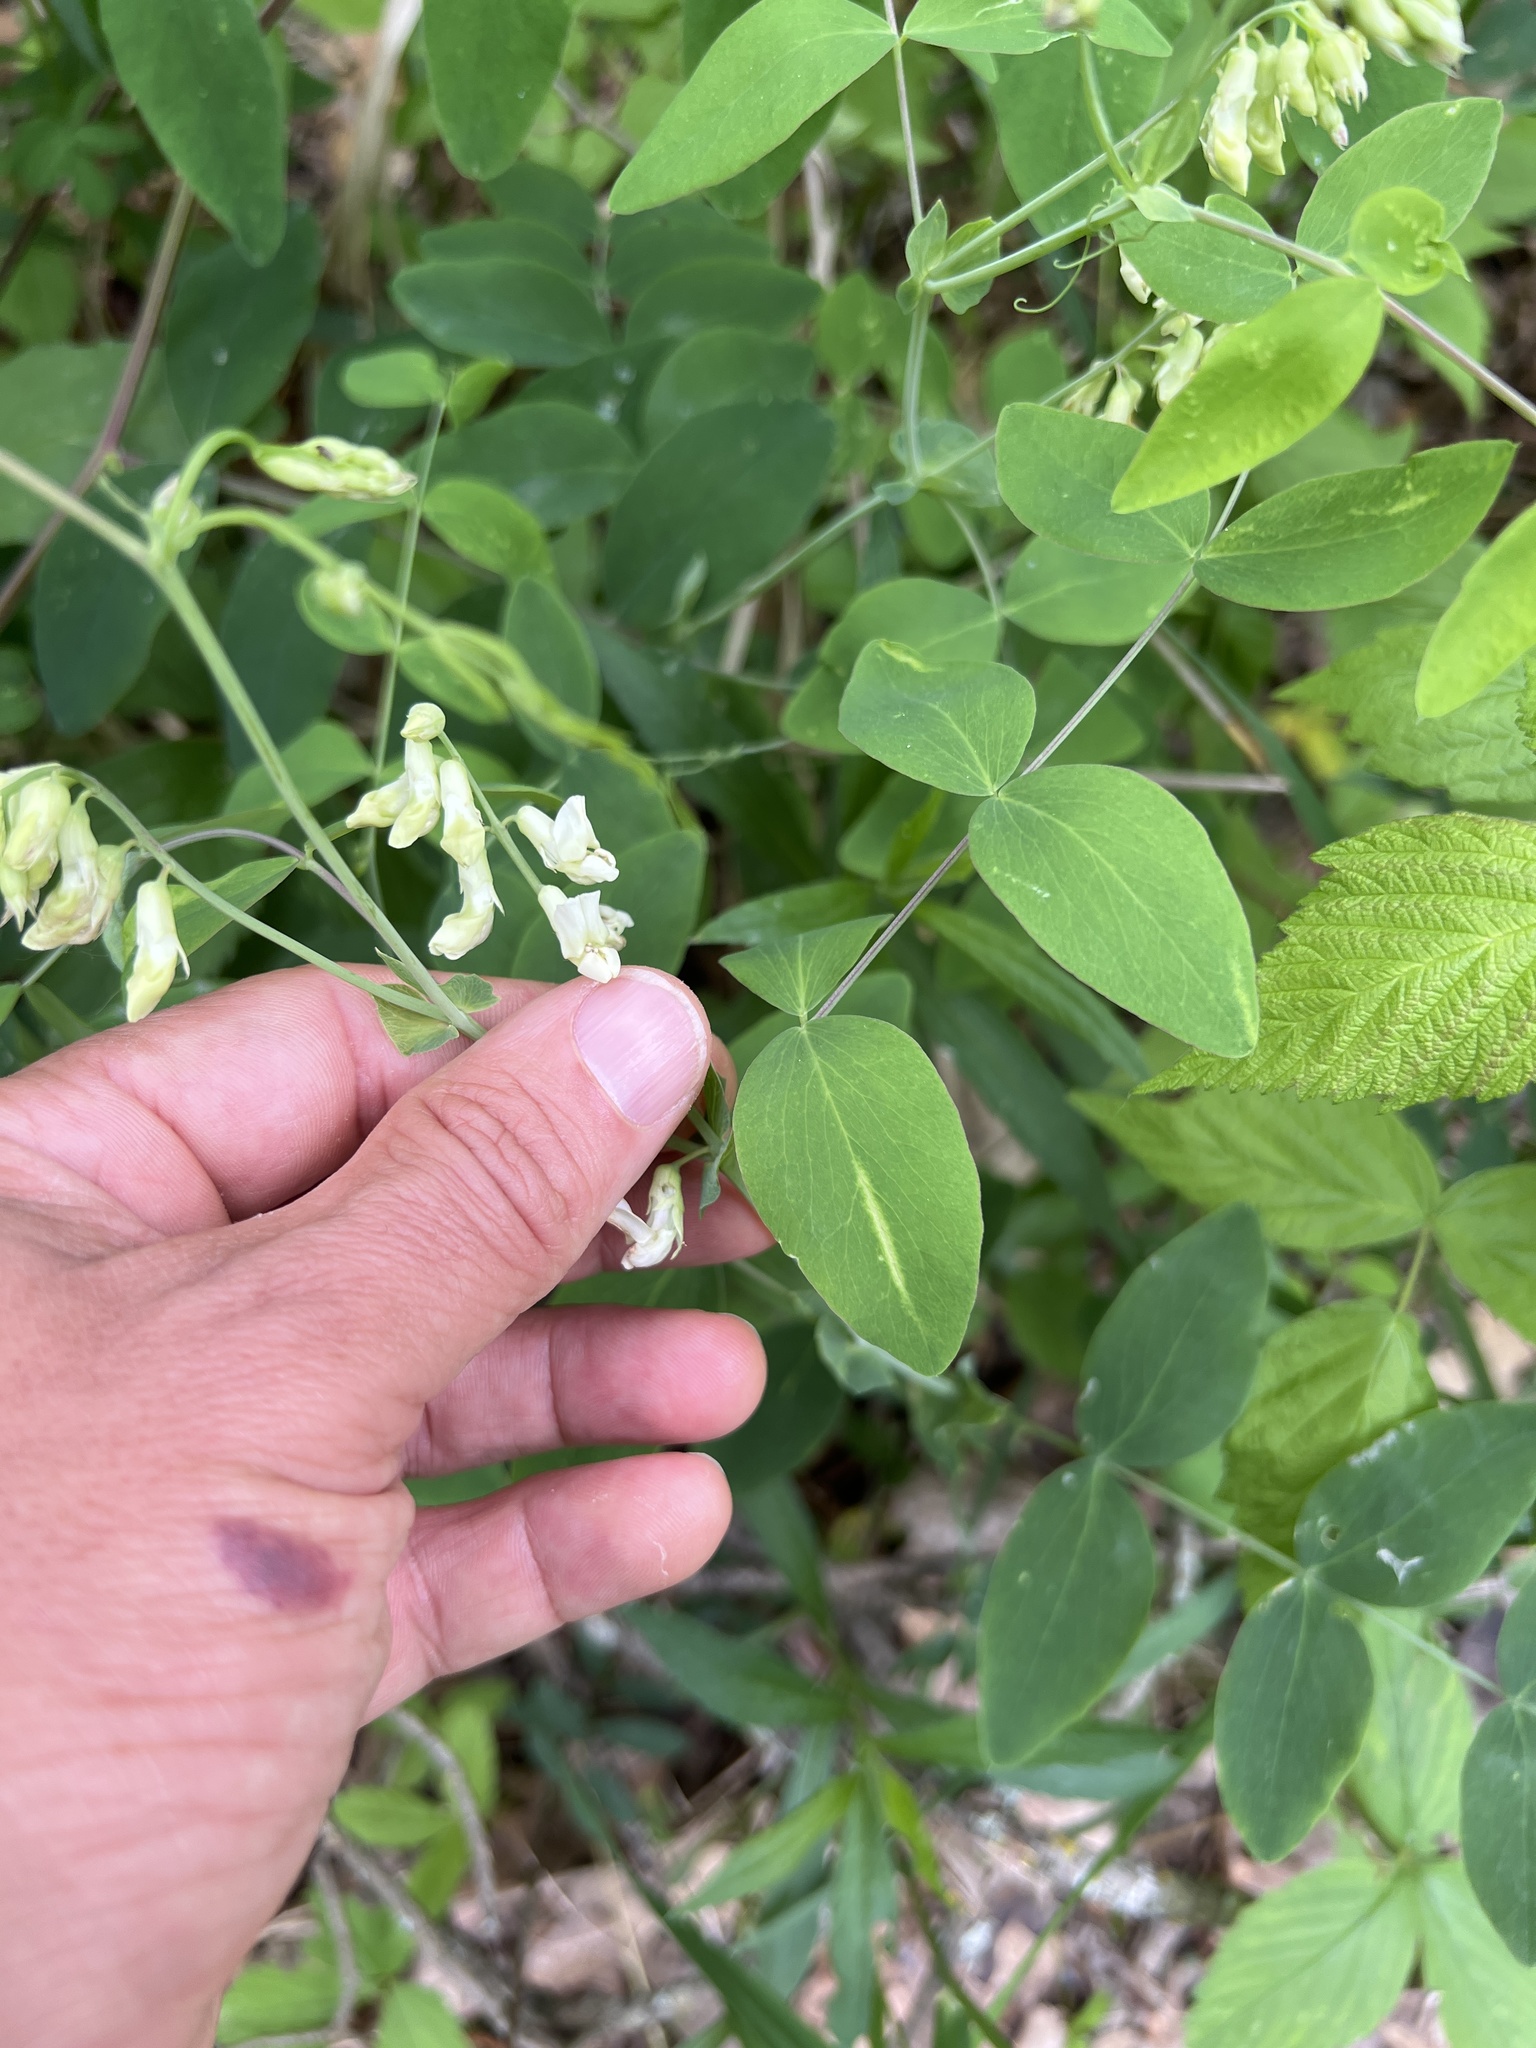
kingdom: Plantae
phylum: Tracheophyta
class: Magnoliopsida
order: Fabales
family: Fabaceae
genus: Lathyrus
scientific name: Lathyrus ochroleucus
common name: Pale vetchling
